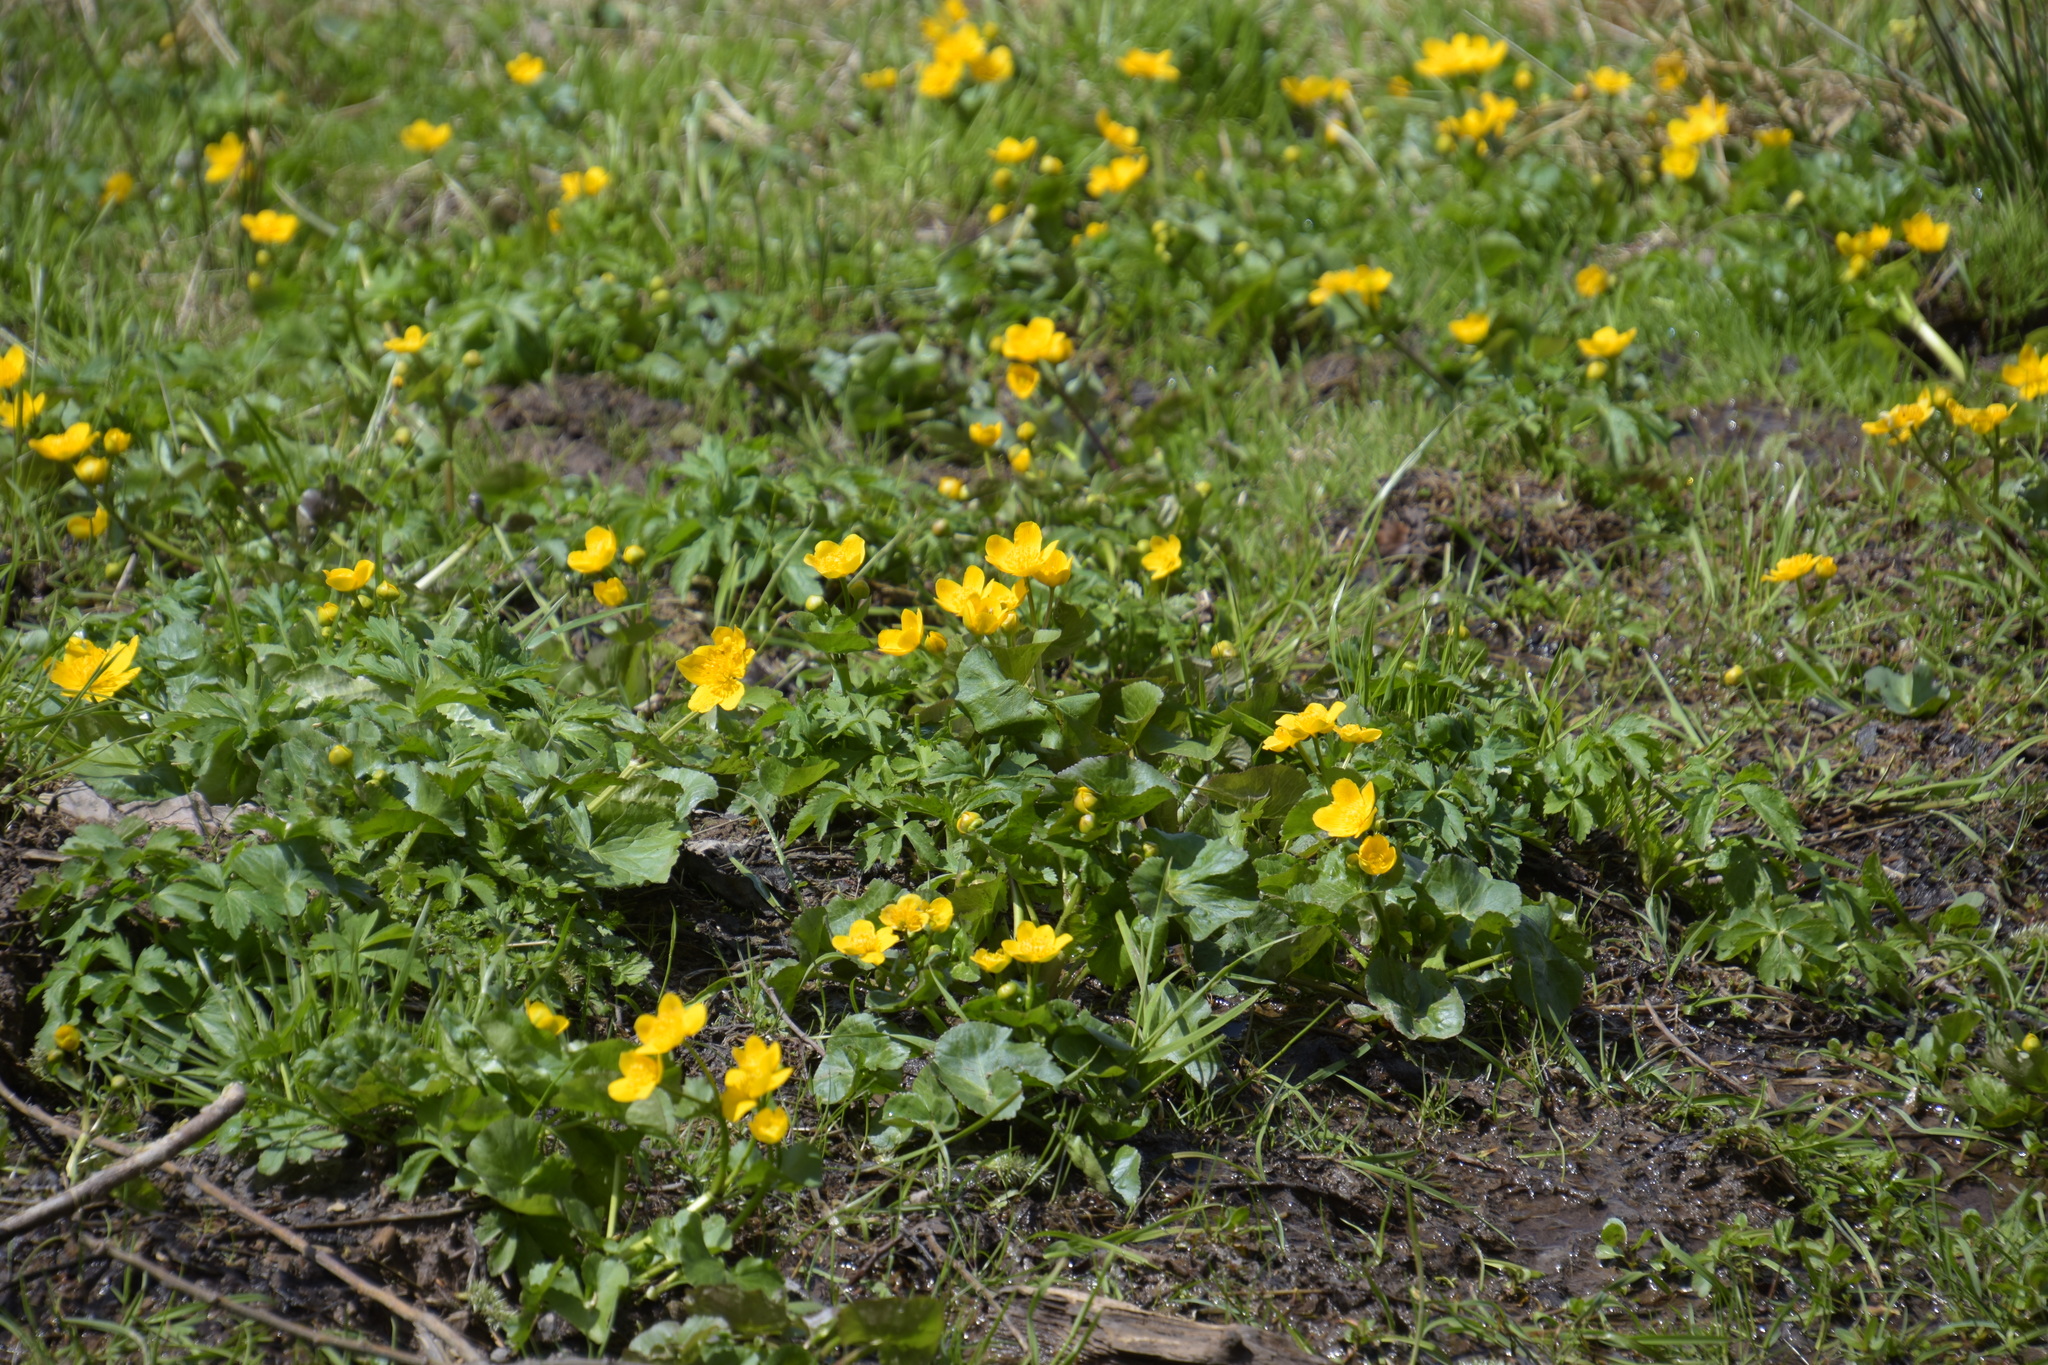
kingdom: Plantae
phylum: Tracheophyta
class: Magnoliopsida
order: Ranunculales
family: Ranunculaceae
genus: Caltha
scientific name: Caltha palustris
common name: Marsh marigold
